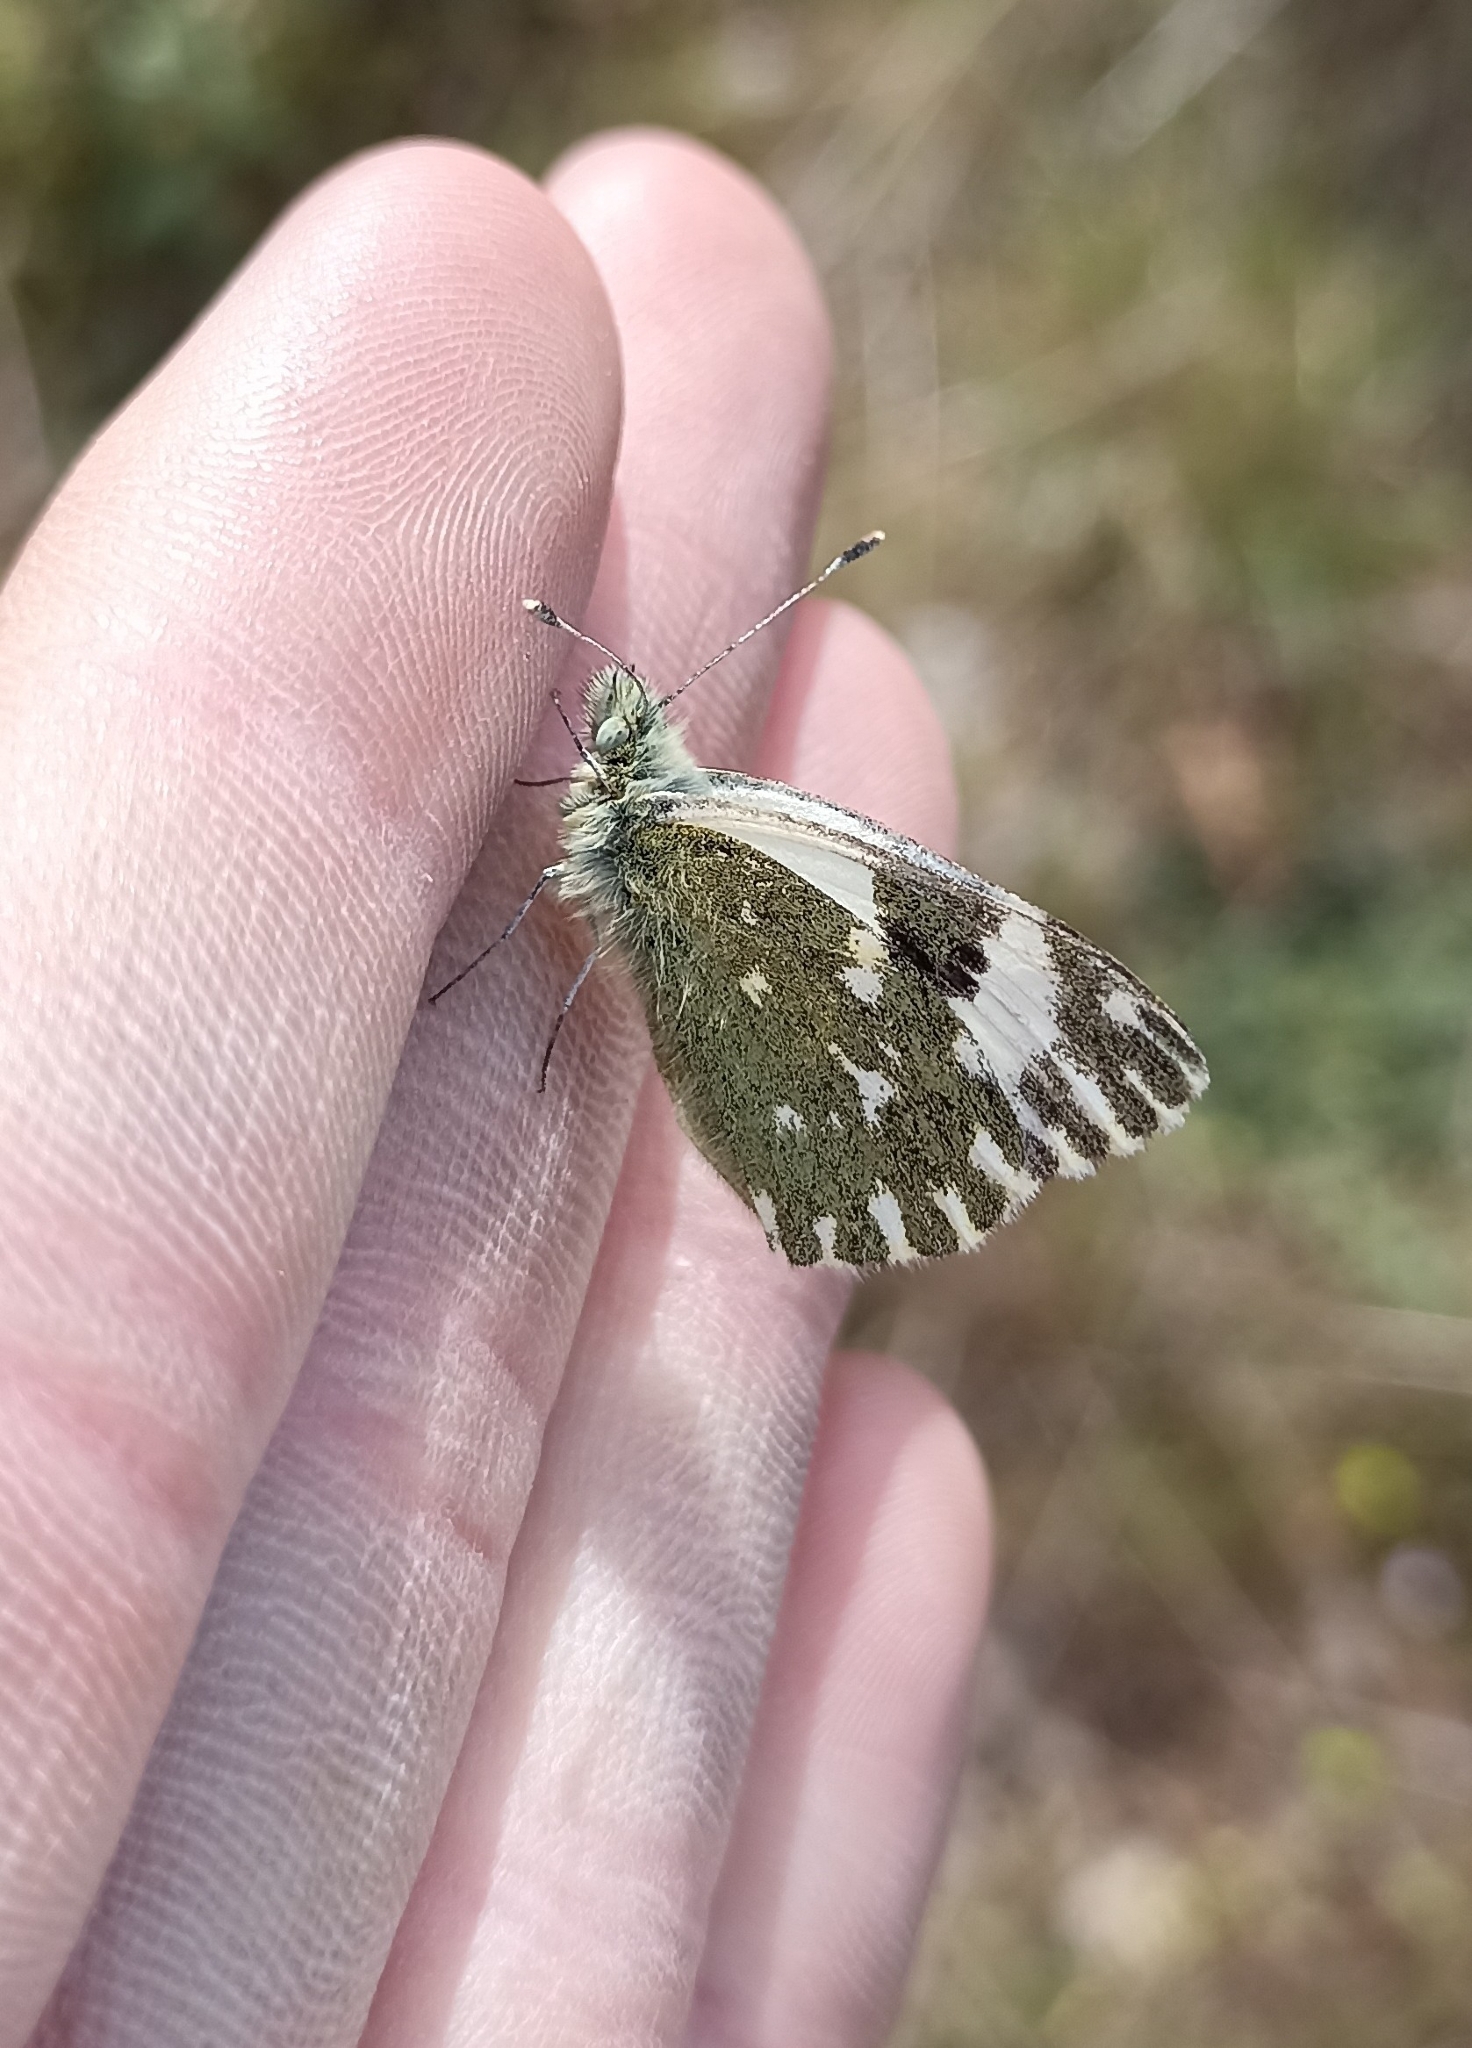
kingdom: Animalia
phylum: Arthropoda
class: Insecta
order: Lepidoptera
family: Pieridae
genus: Pontia
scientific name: Pontia daplidice
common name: Bath white
